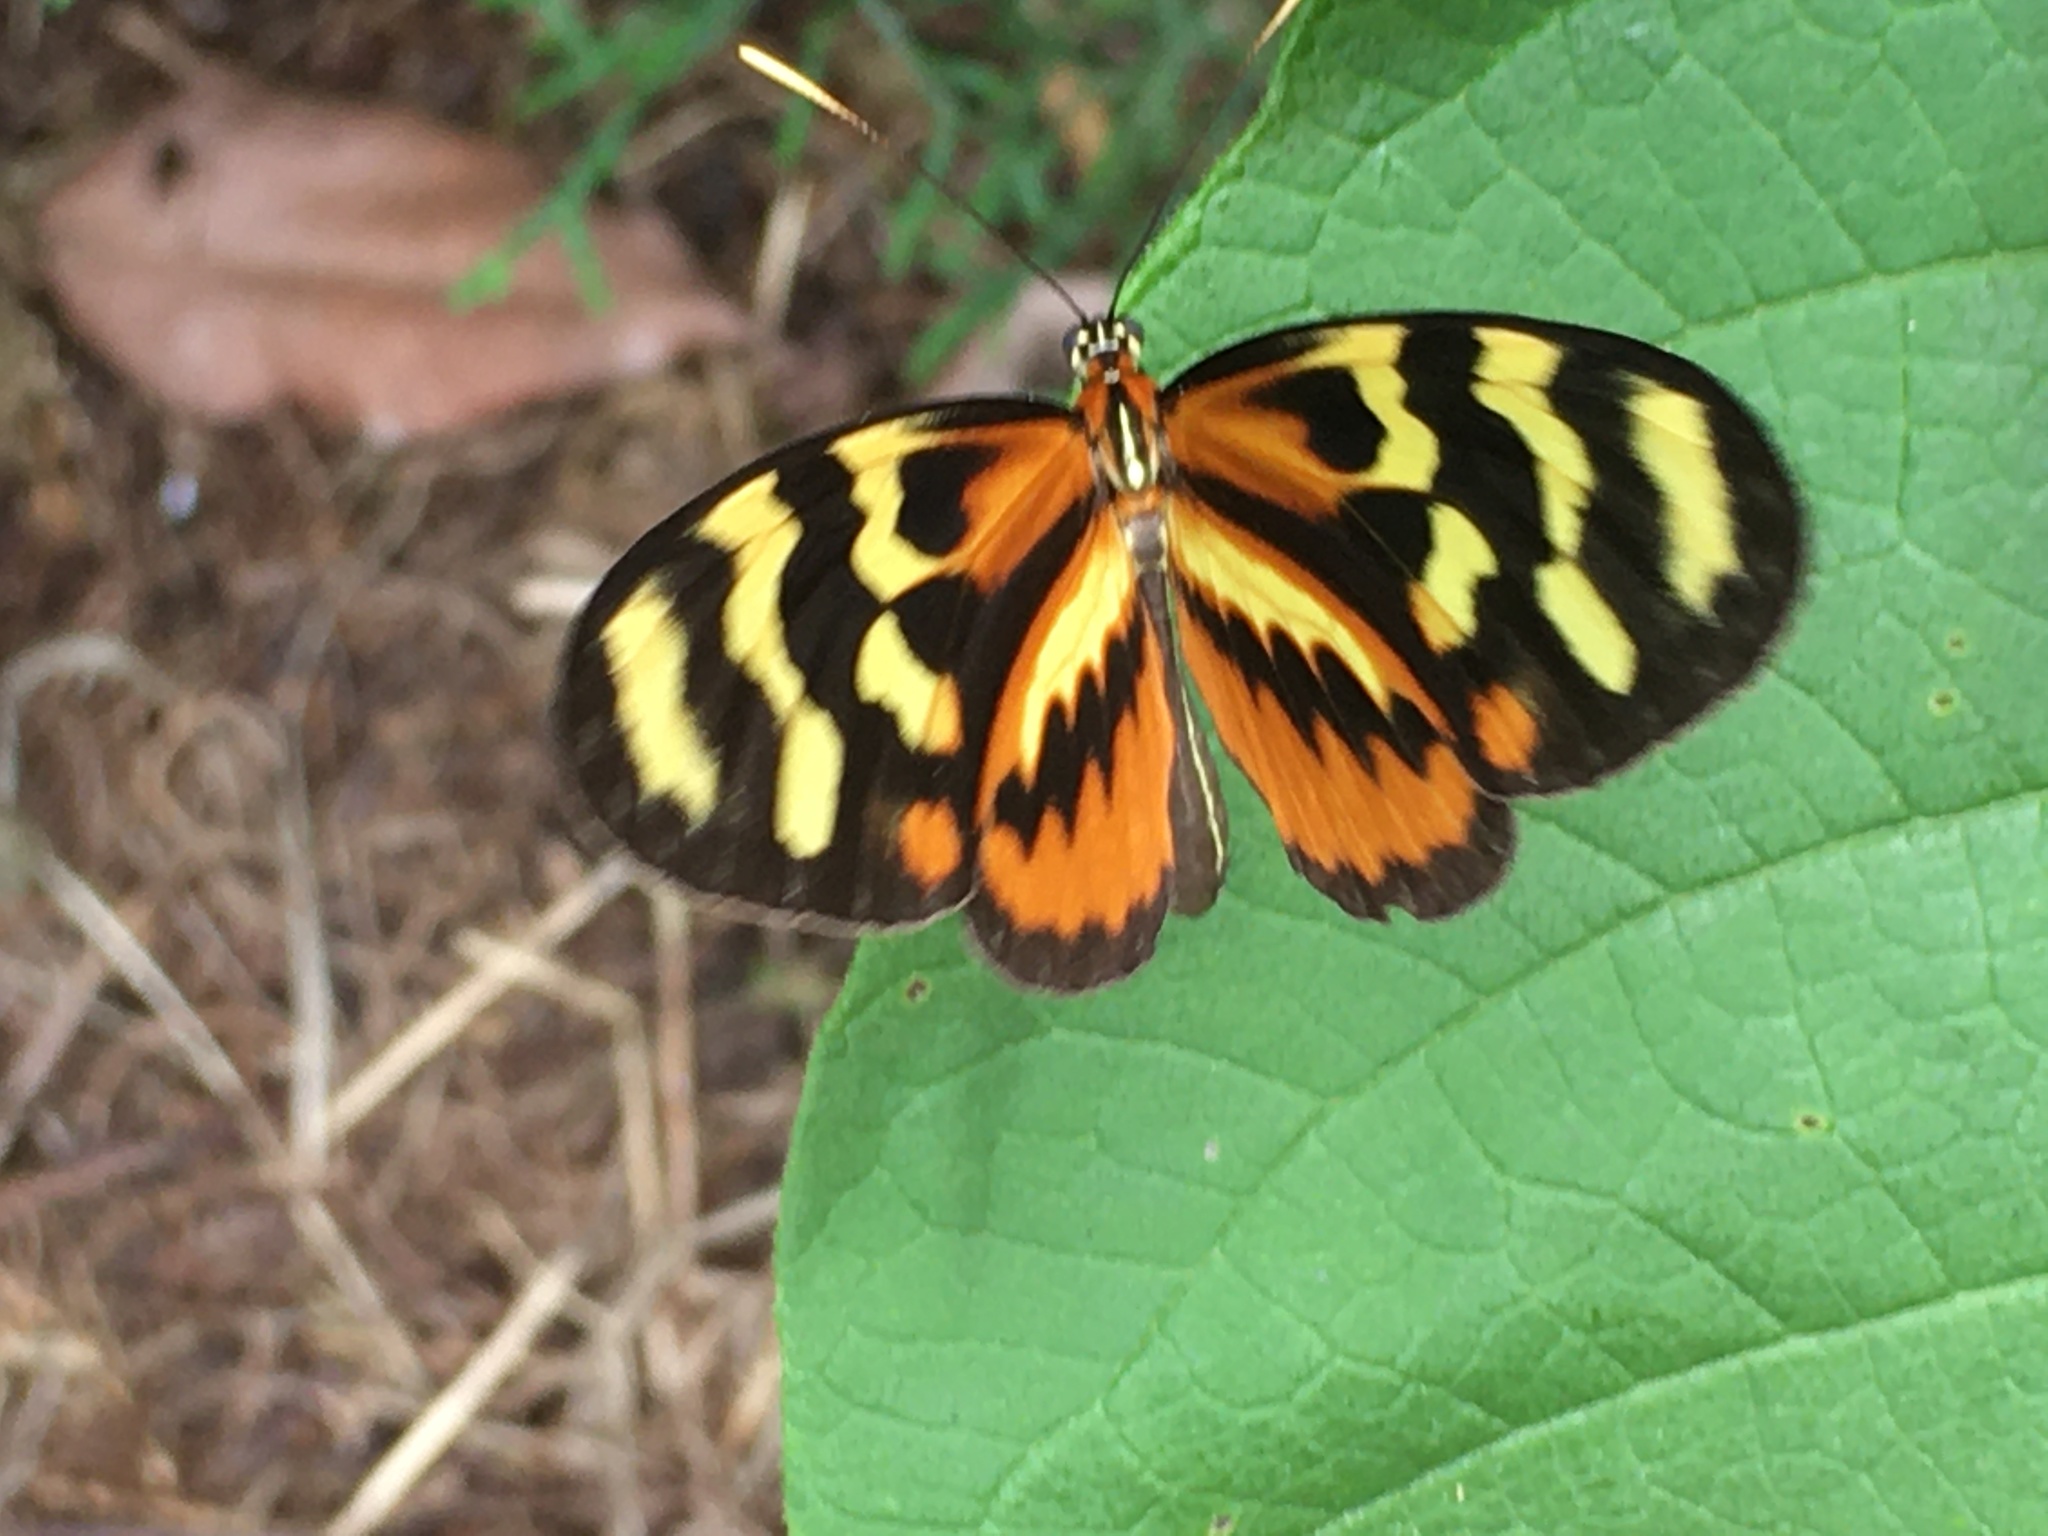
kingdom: Animalia
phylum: Arthropoda
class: Insecta
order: Lepidoptera
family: Nymphalidae
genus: Mechanitis
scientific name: Mechanitis polymnia
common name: Disturbed tigerwing
